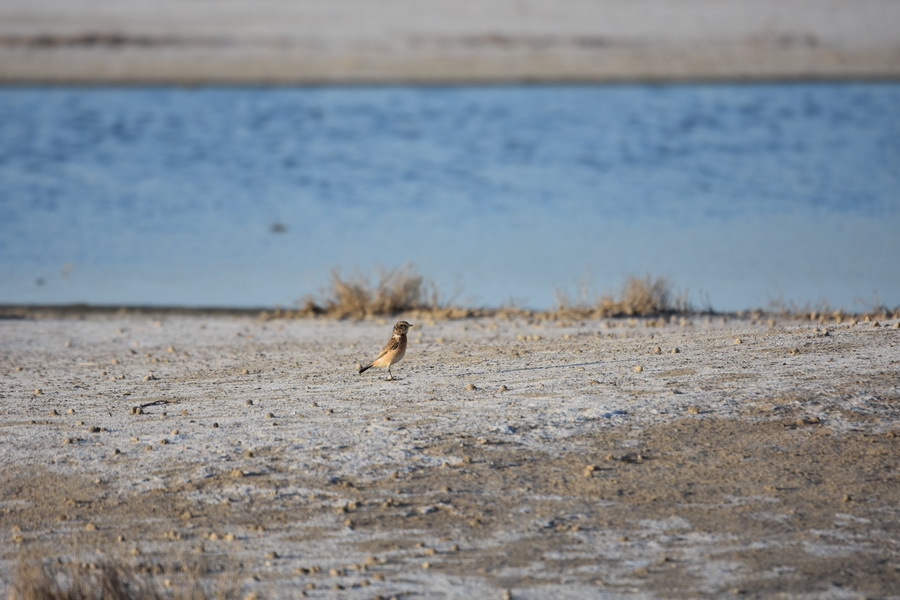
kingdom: Animalia
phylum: Chordata
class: Aves
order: Passeriformes
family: Muscicapidae
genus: Saxicola
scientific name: Saxicola maurus
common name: Siberian stonechat
